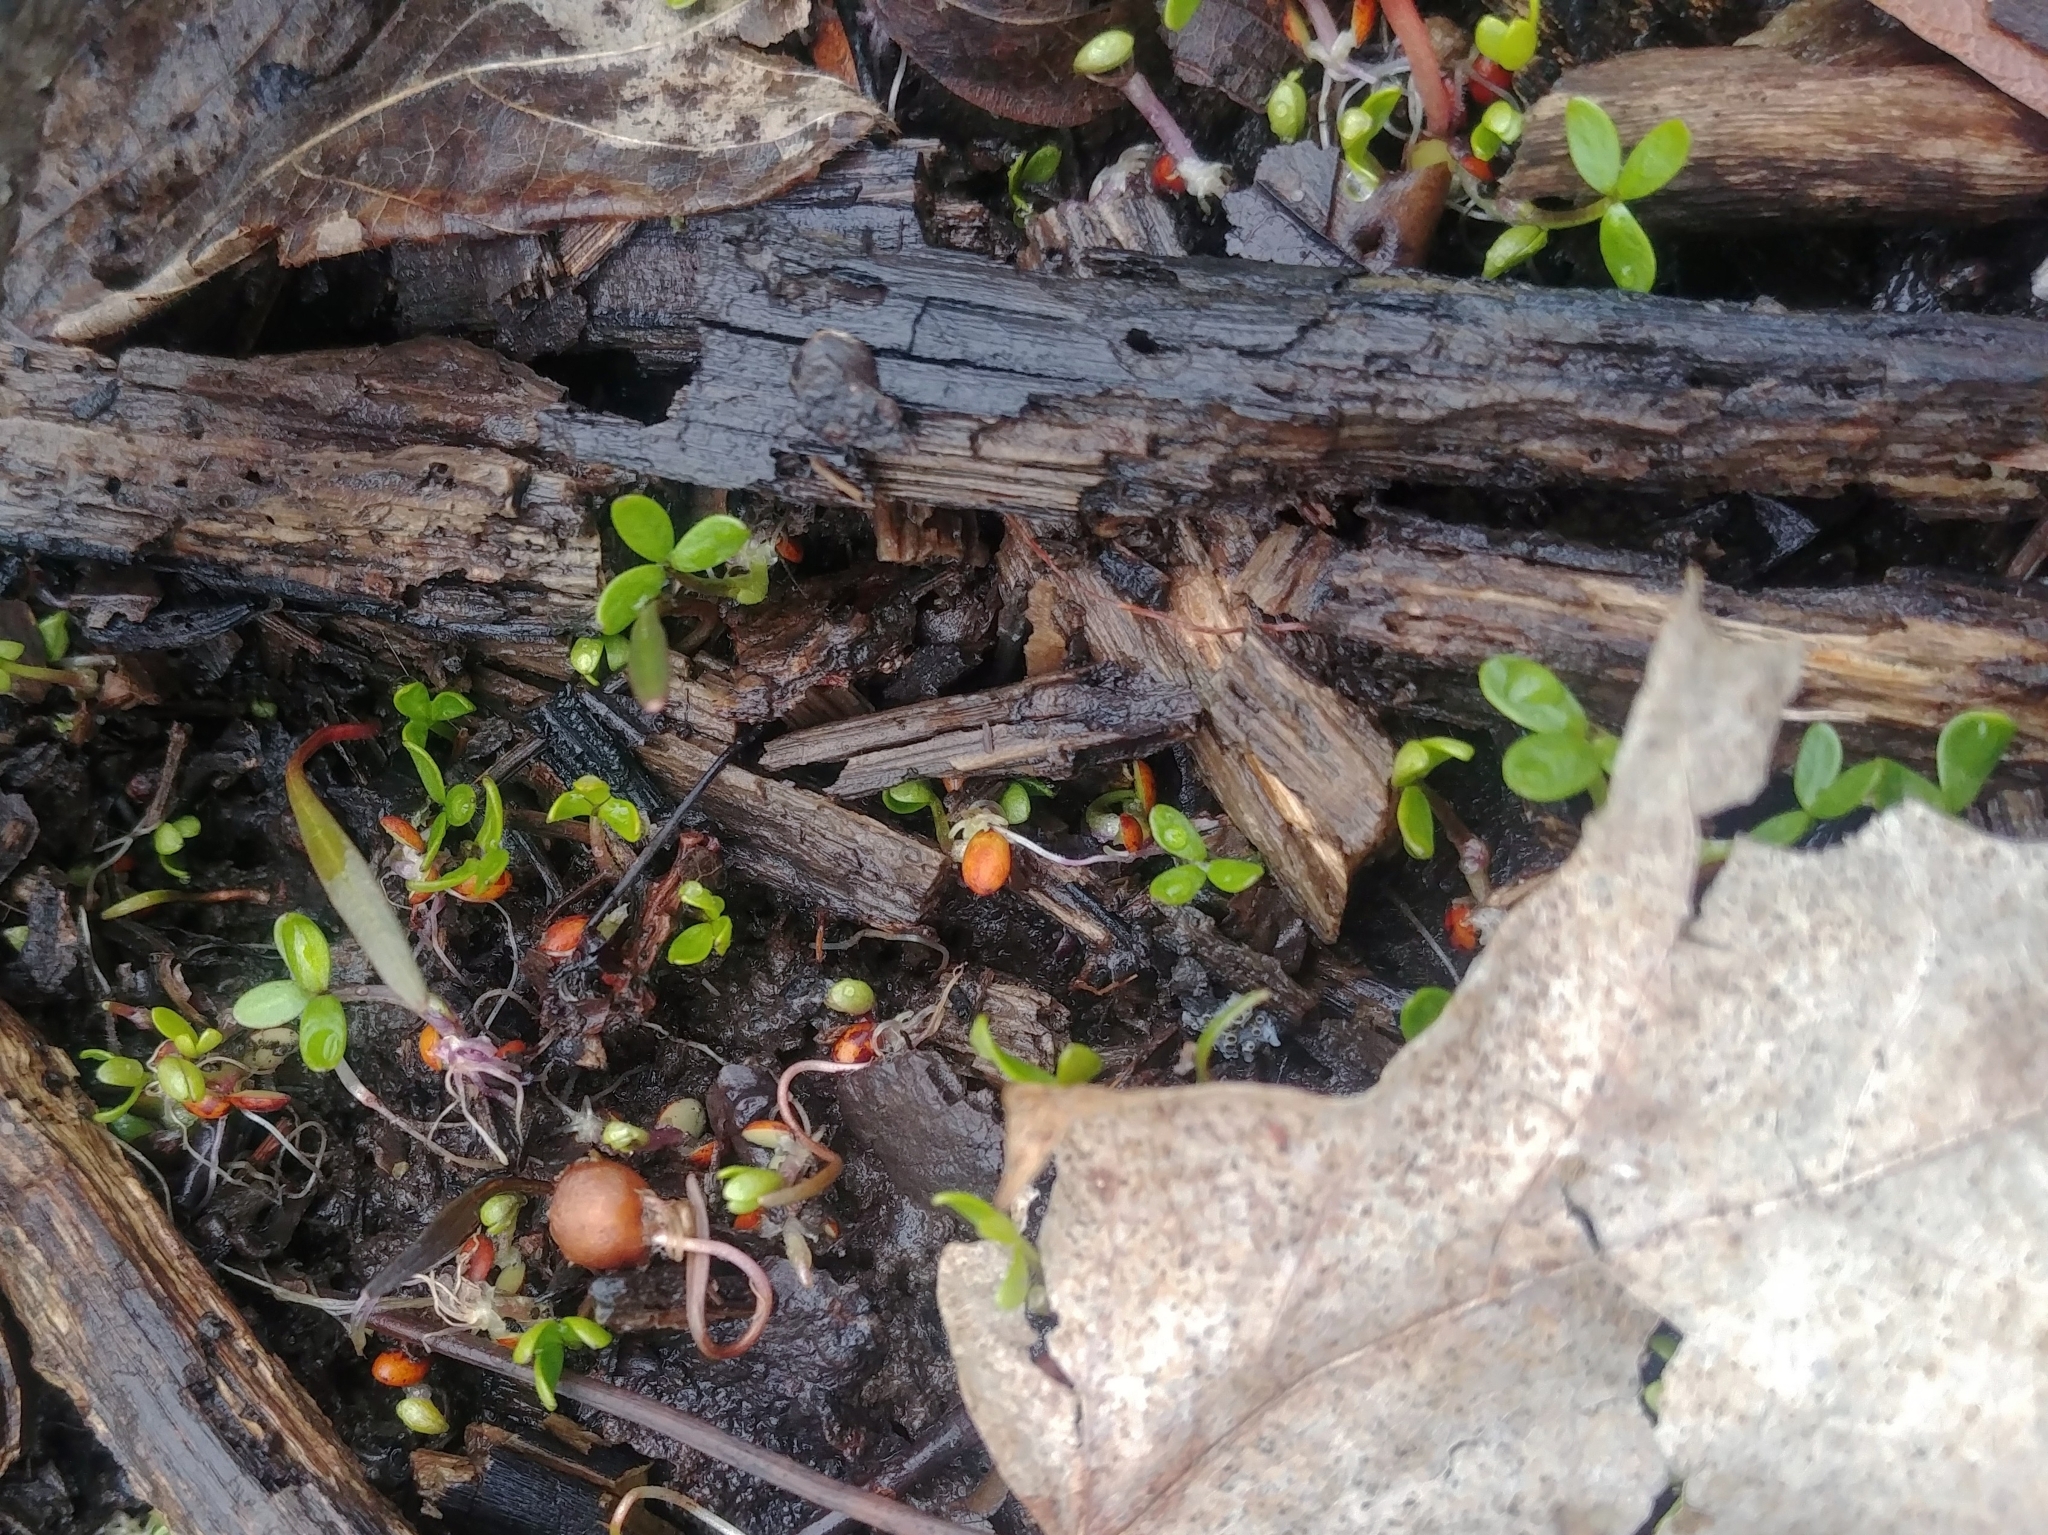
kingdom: Plantae
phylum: Tracheophyta
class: Magnoliopsida
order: Brassicales
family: Limnanthaceae
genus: Floerkea
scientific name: Floerkea proserpinacoides
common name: False mermaid
